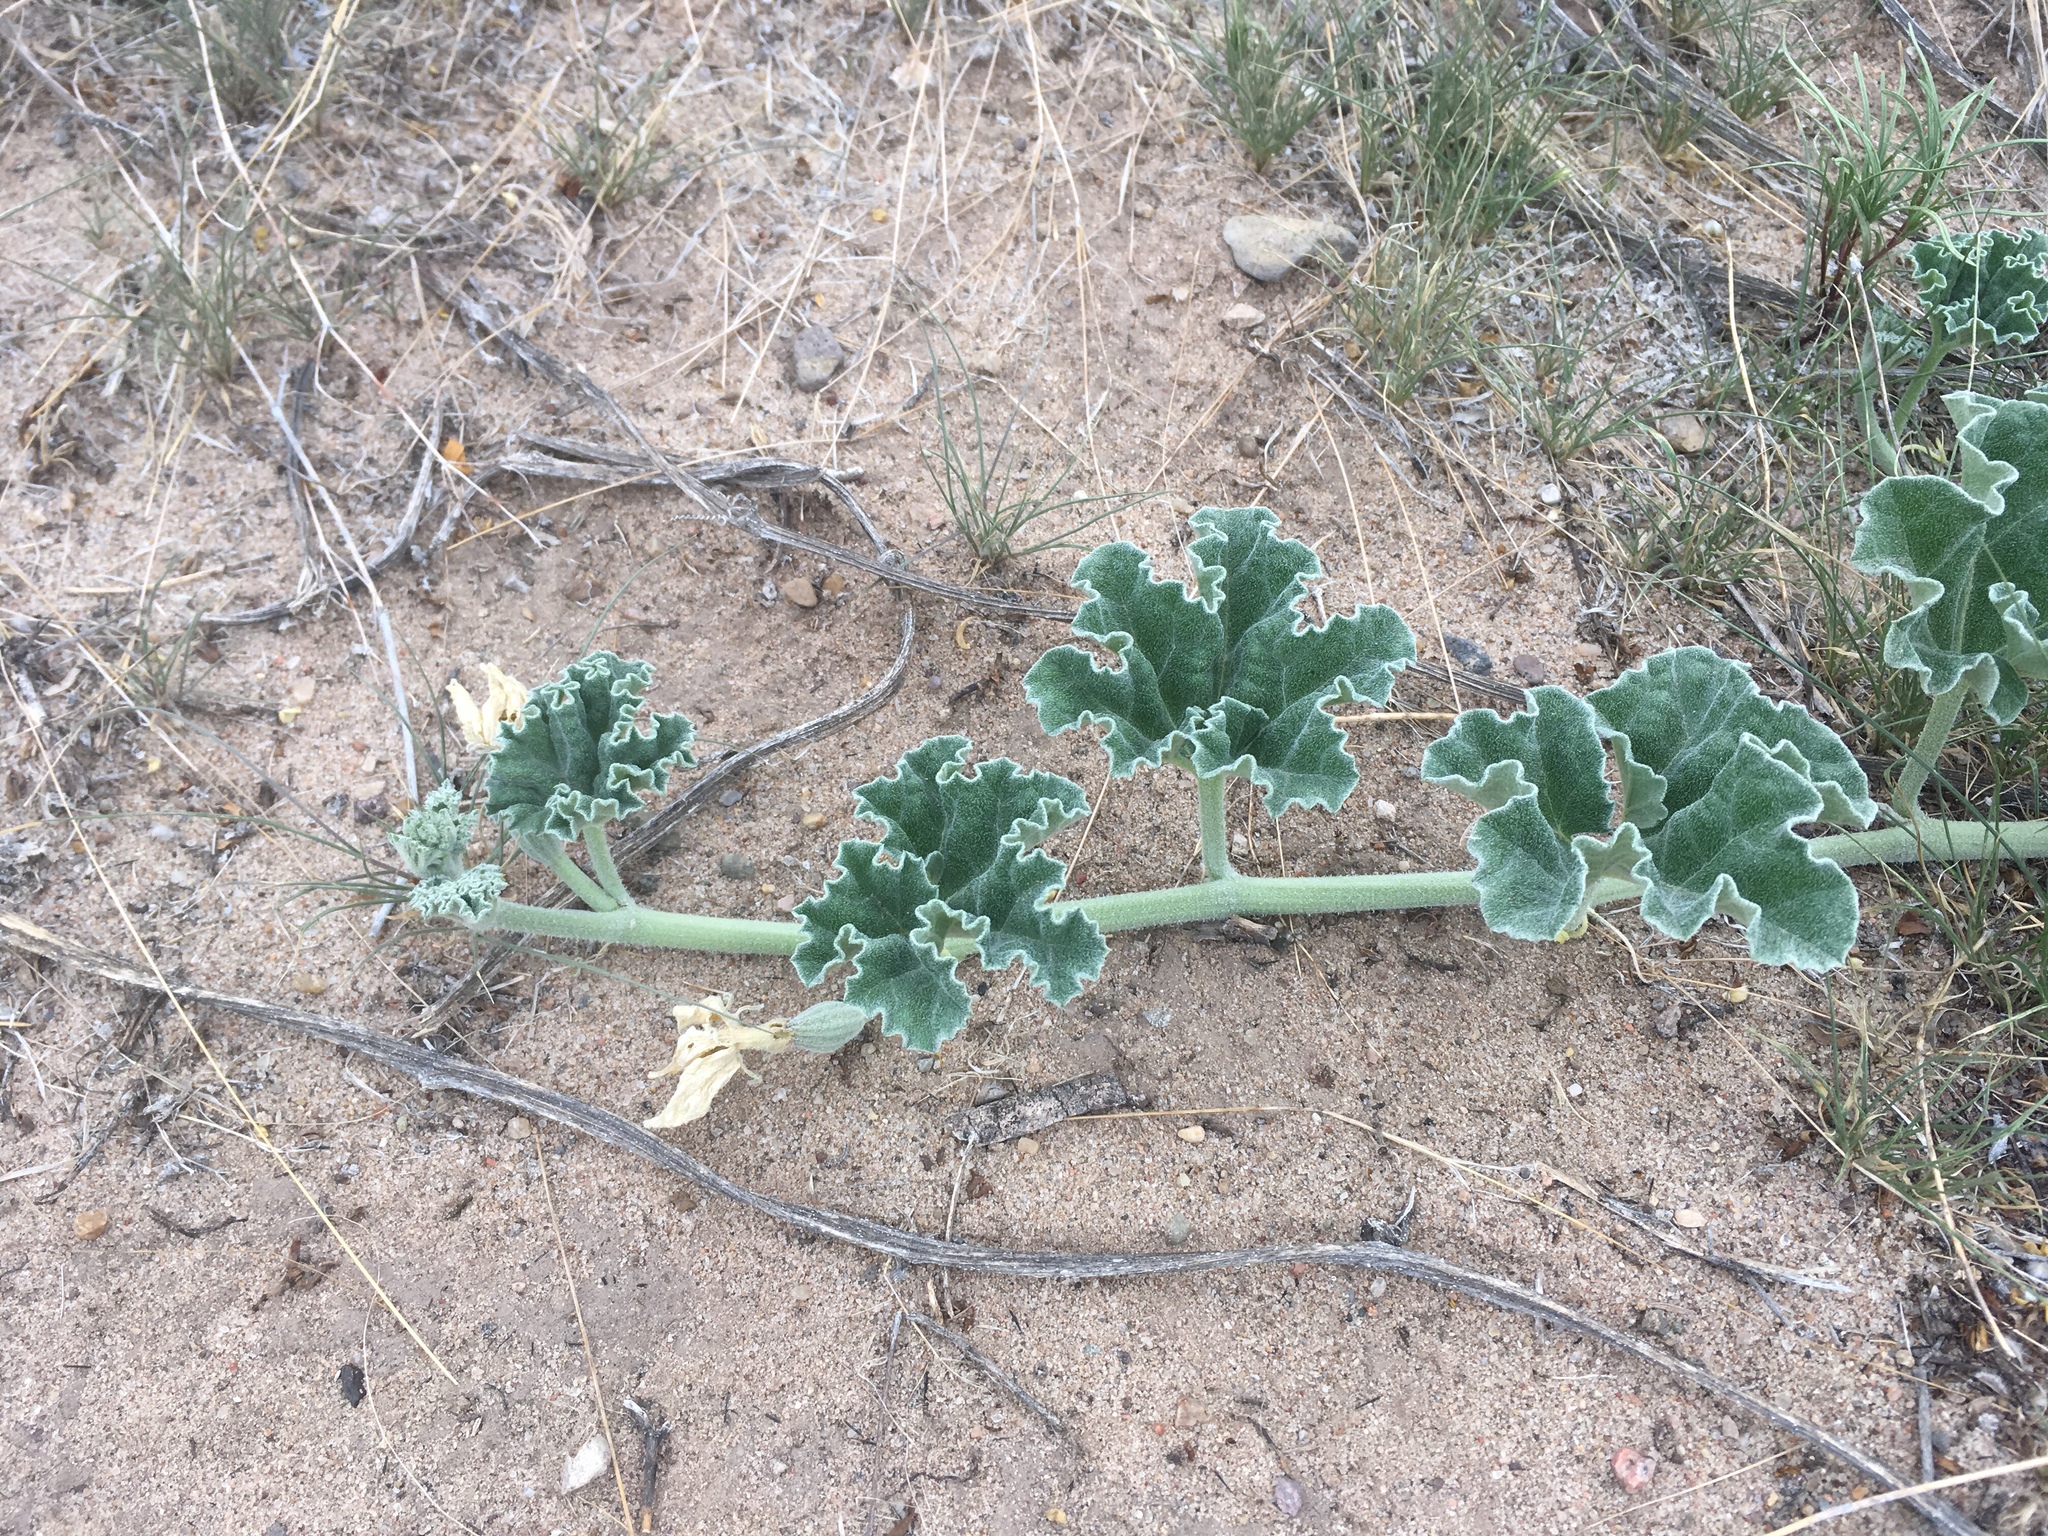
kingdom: Plantae
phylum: Tracheophyta
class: Magnoliopsida
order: Cucurbitales
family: Cucurbitaceae
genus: Apodanthera
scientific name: Apodanthera undulata
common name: Melon-loco
